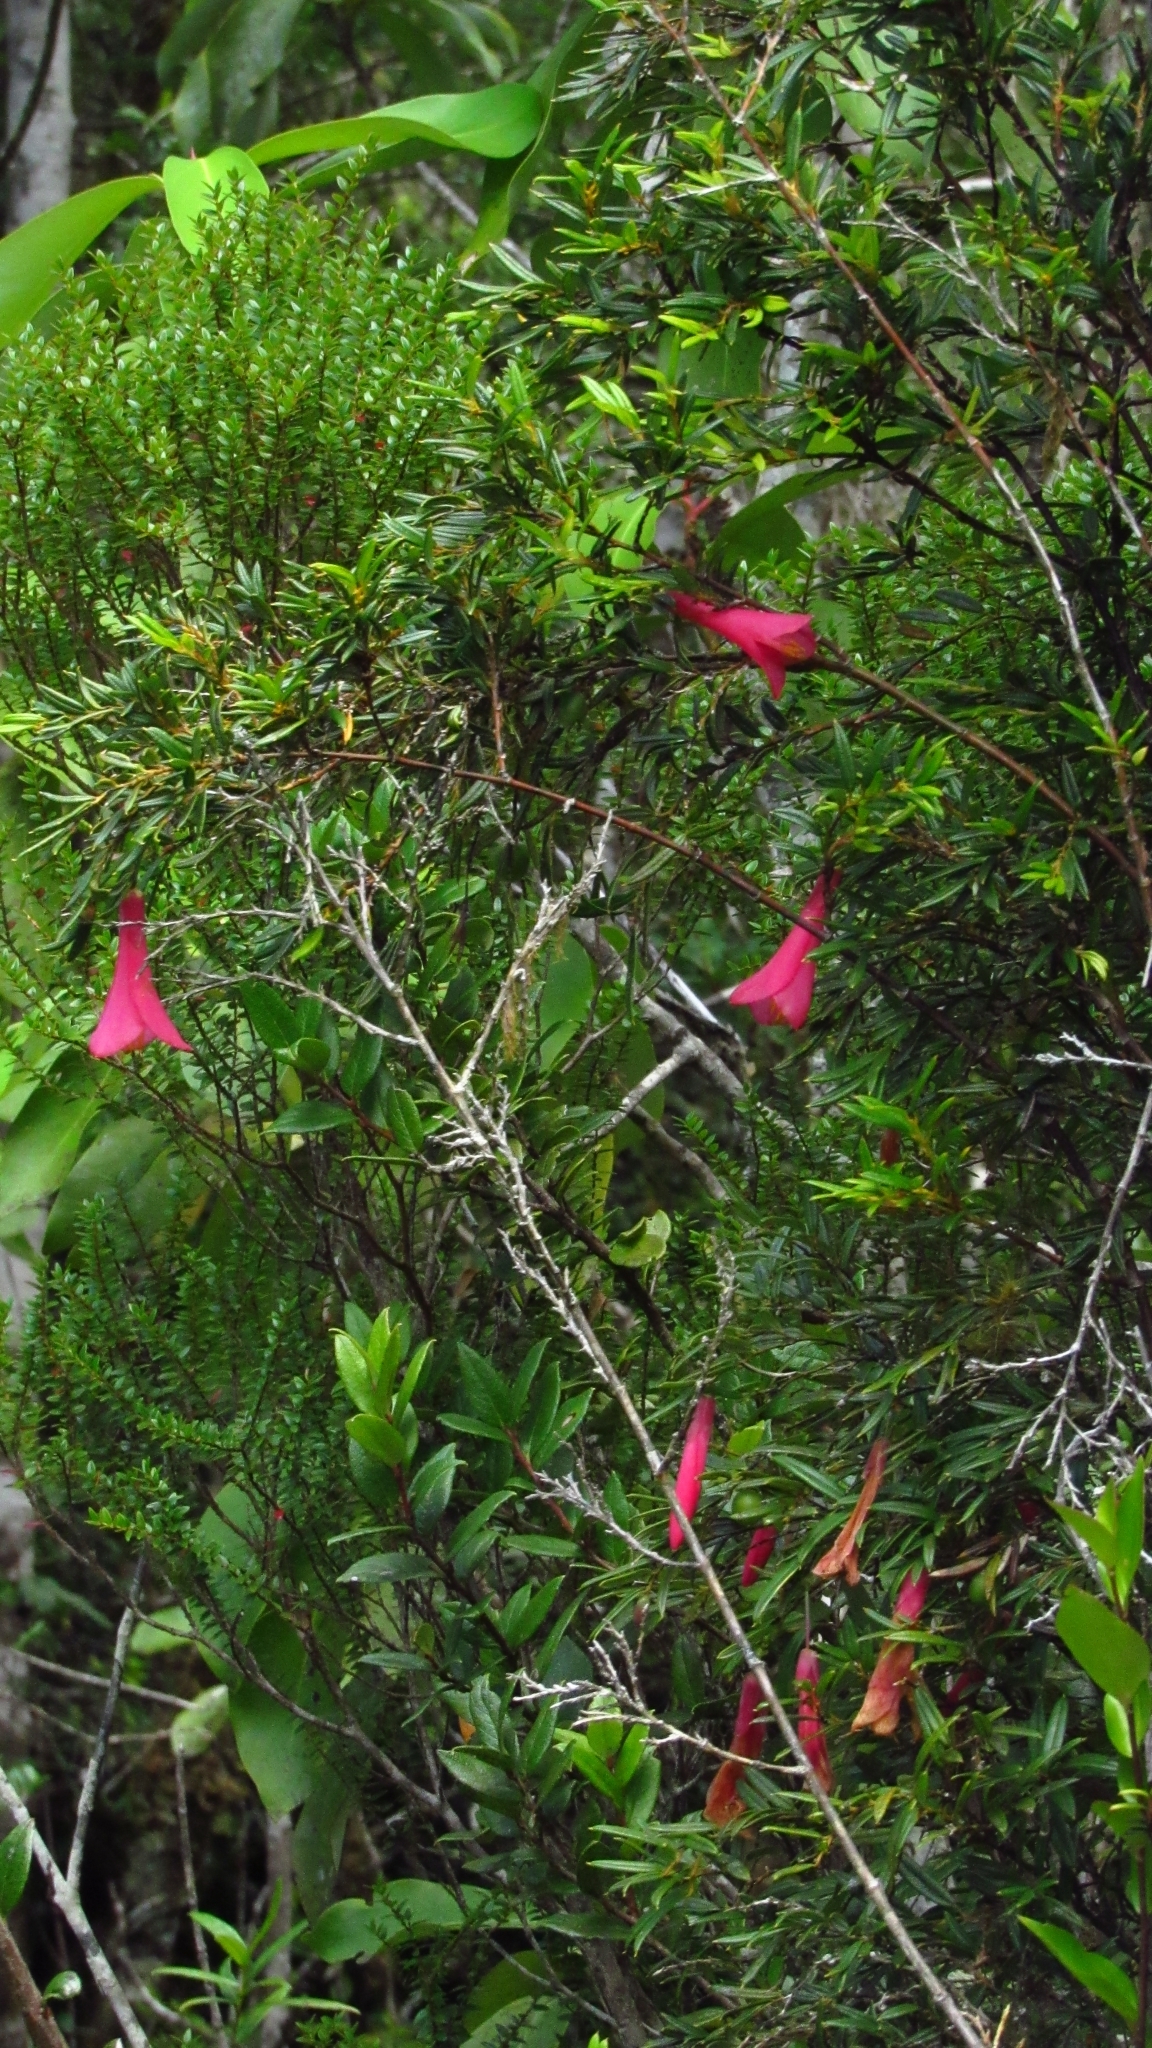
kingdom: Plantae
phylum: Tracheophyta
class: Liliopsida
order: Liliales
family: Philesiaceae
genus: Philesia
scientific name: Philesia magellanica
